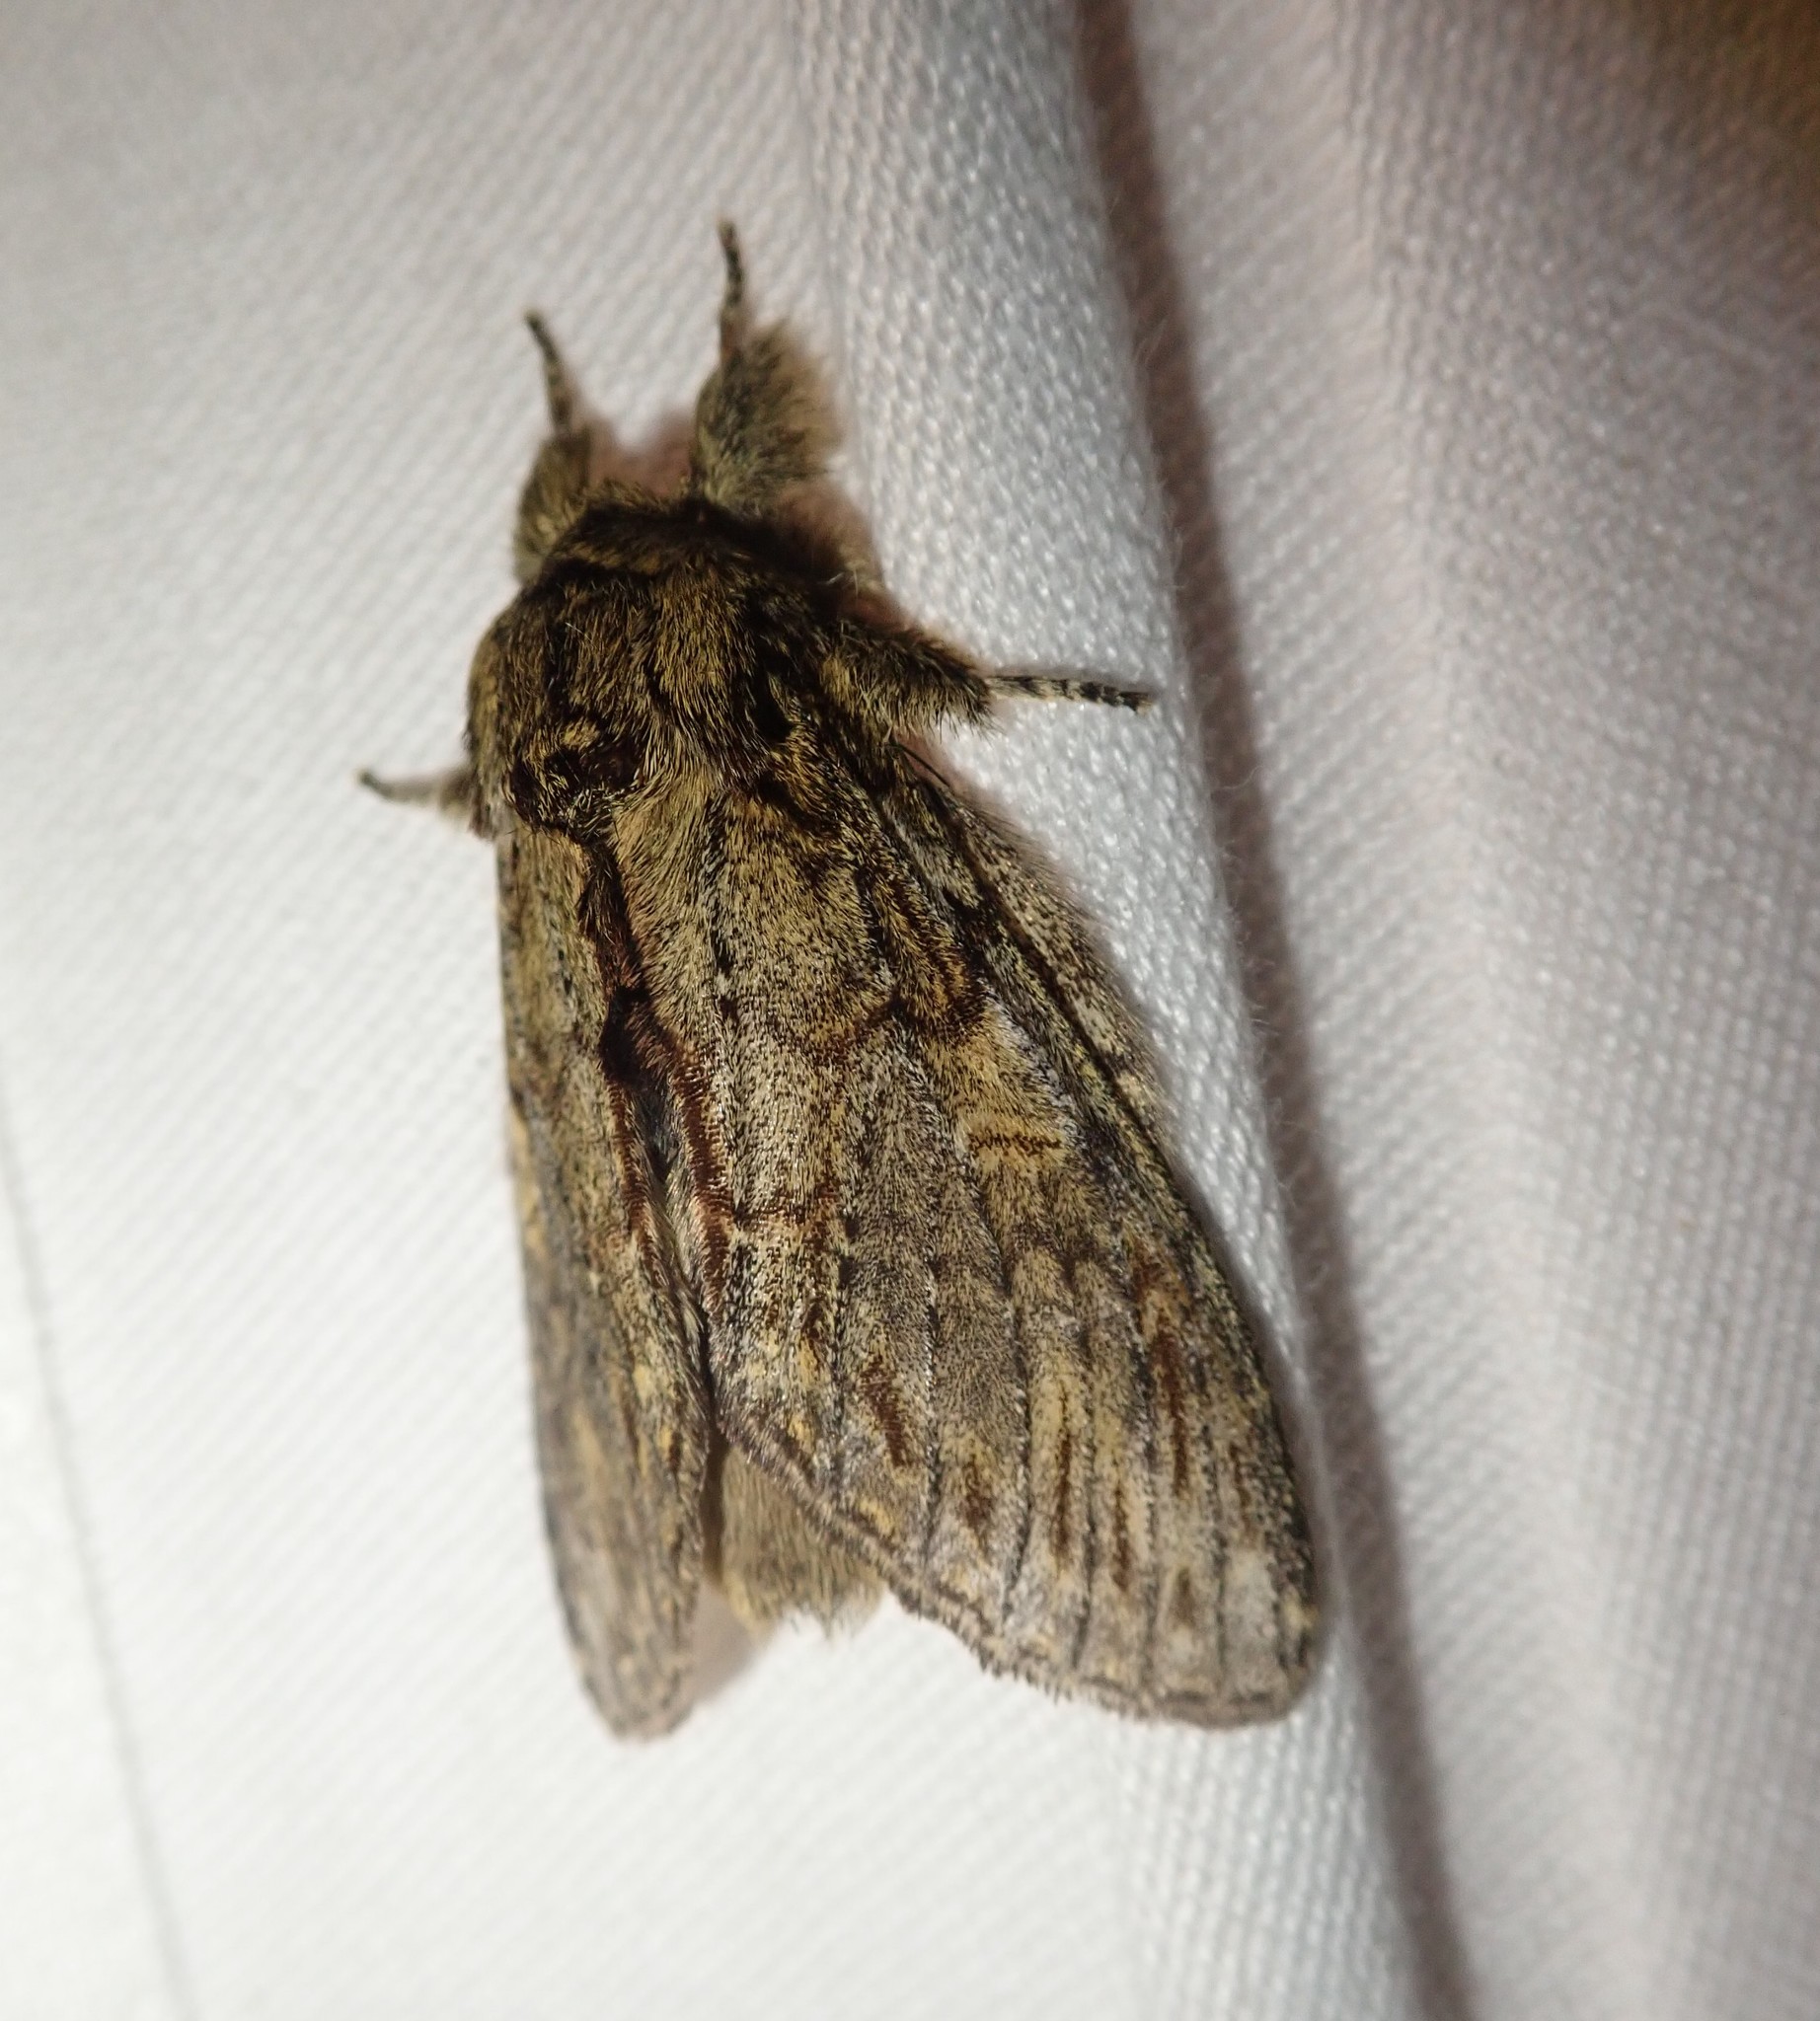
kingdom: Animalia
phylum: Arthropoda
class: Insecta
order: Lepidoptera
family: Notodontidae
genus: Peridea
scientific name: Peridea anceps
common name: Great prominent
